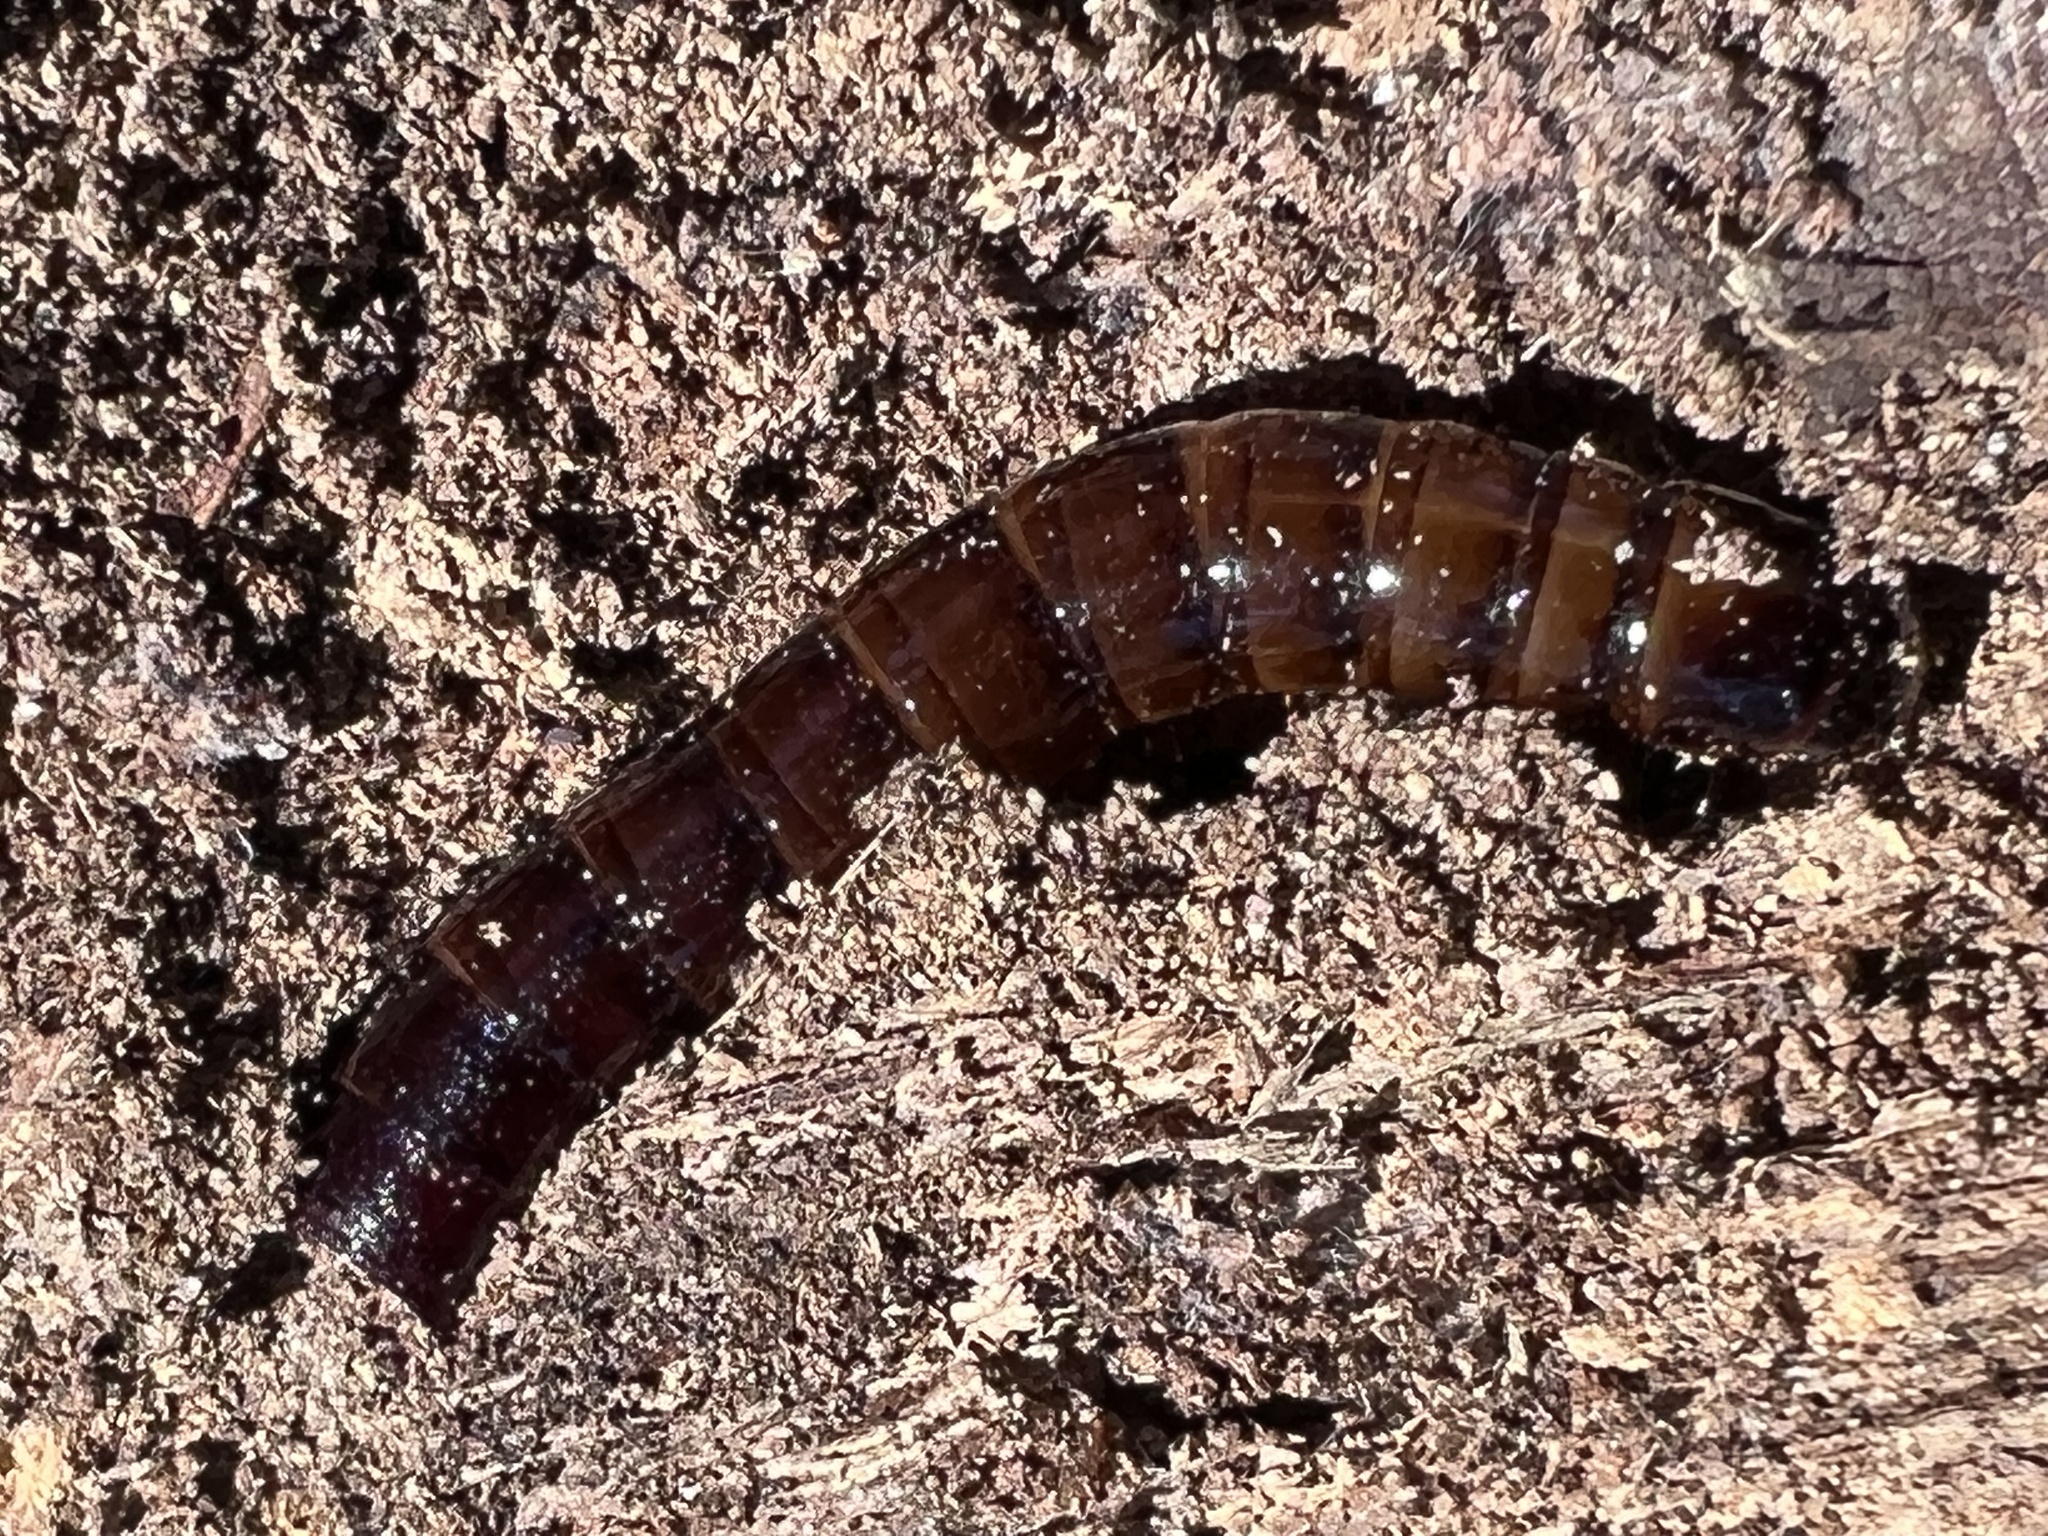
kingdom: Animalia
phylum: Arthropoda
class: Insecta
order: Coleoptera
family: Tenebrionidae
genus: Meracantha
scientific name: Meracantha contracta
